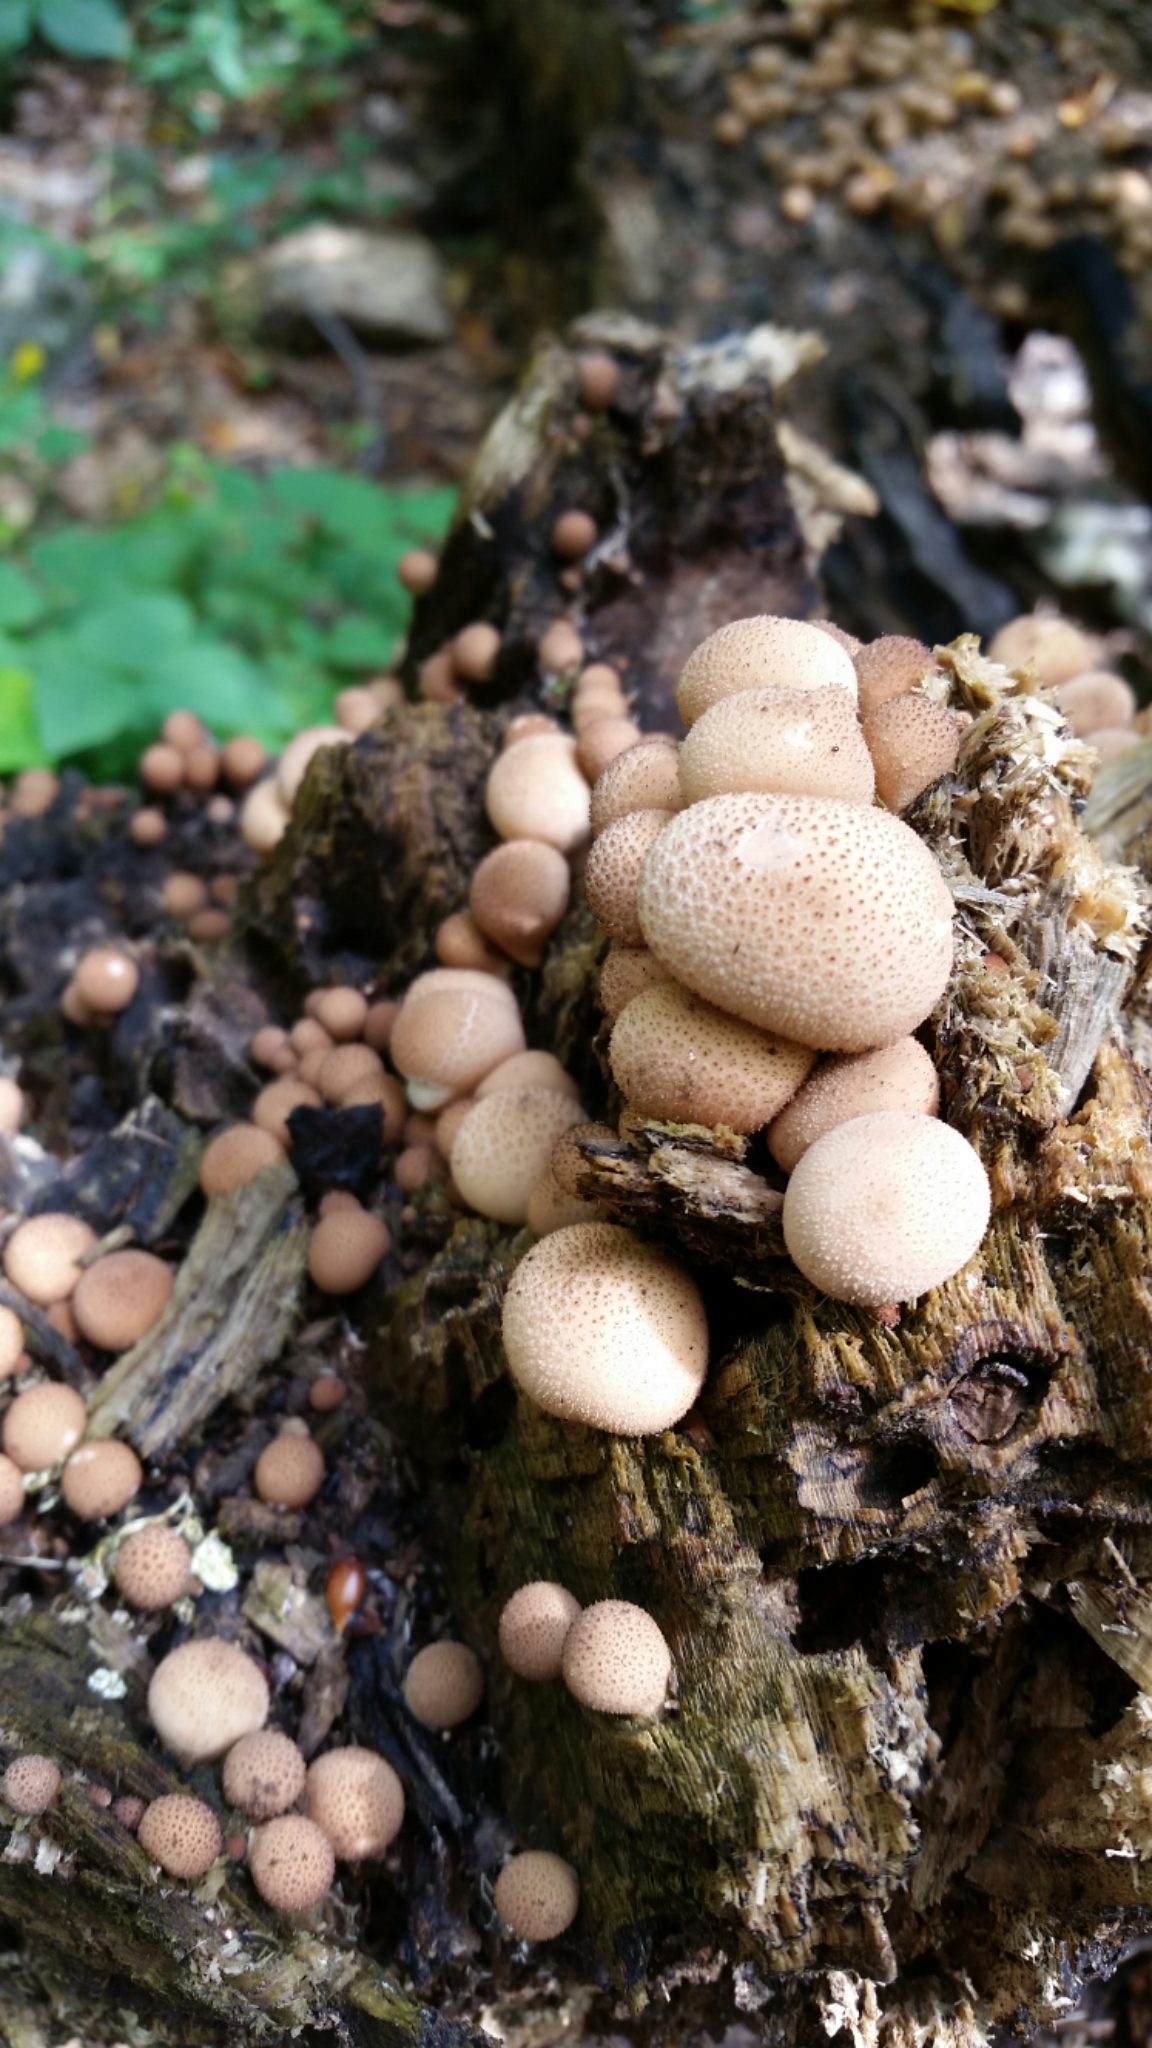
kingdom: Fungi
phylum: Basidiomycota
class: Agaricomycetes
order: Agaricales
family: Lycoperdaceae
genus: Apioperdon
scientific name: Apioperdon pyriforme
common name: Pear-shaped puffball
